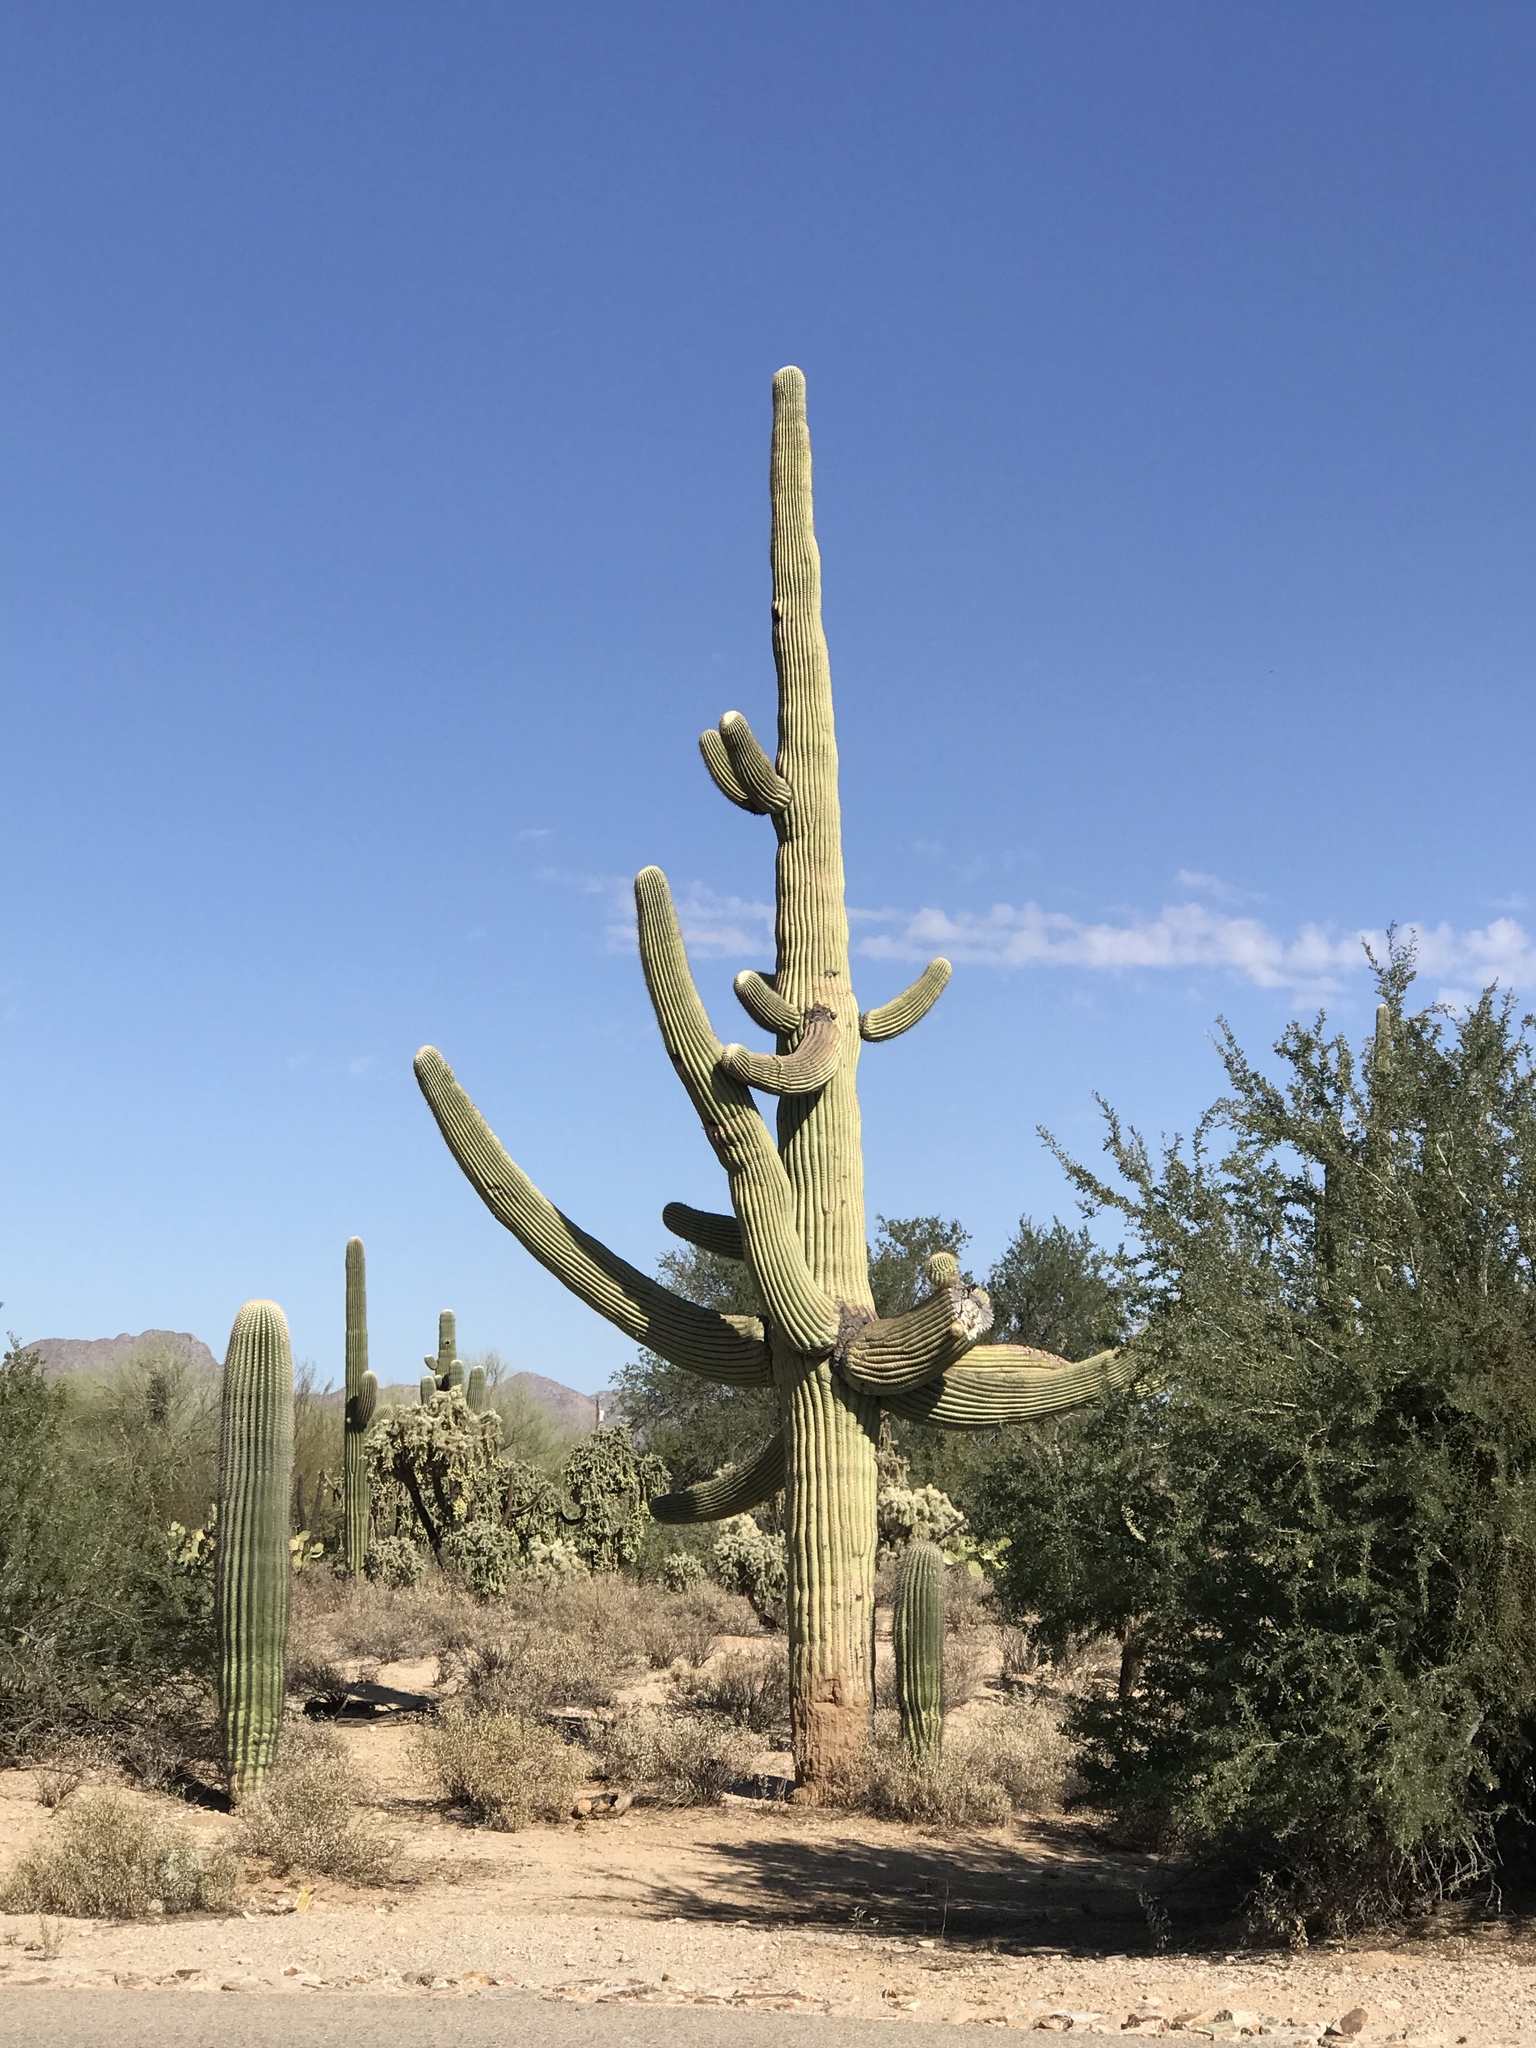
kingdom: Plantae
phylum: Tracheophyta
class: Magnoliopsida
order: Caryophyllales
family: Cactaceae
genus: Carnegiea
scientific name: Carnegiea gigantea
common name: Saguaro
